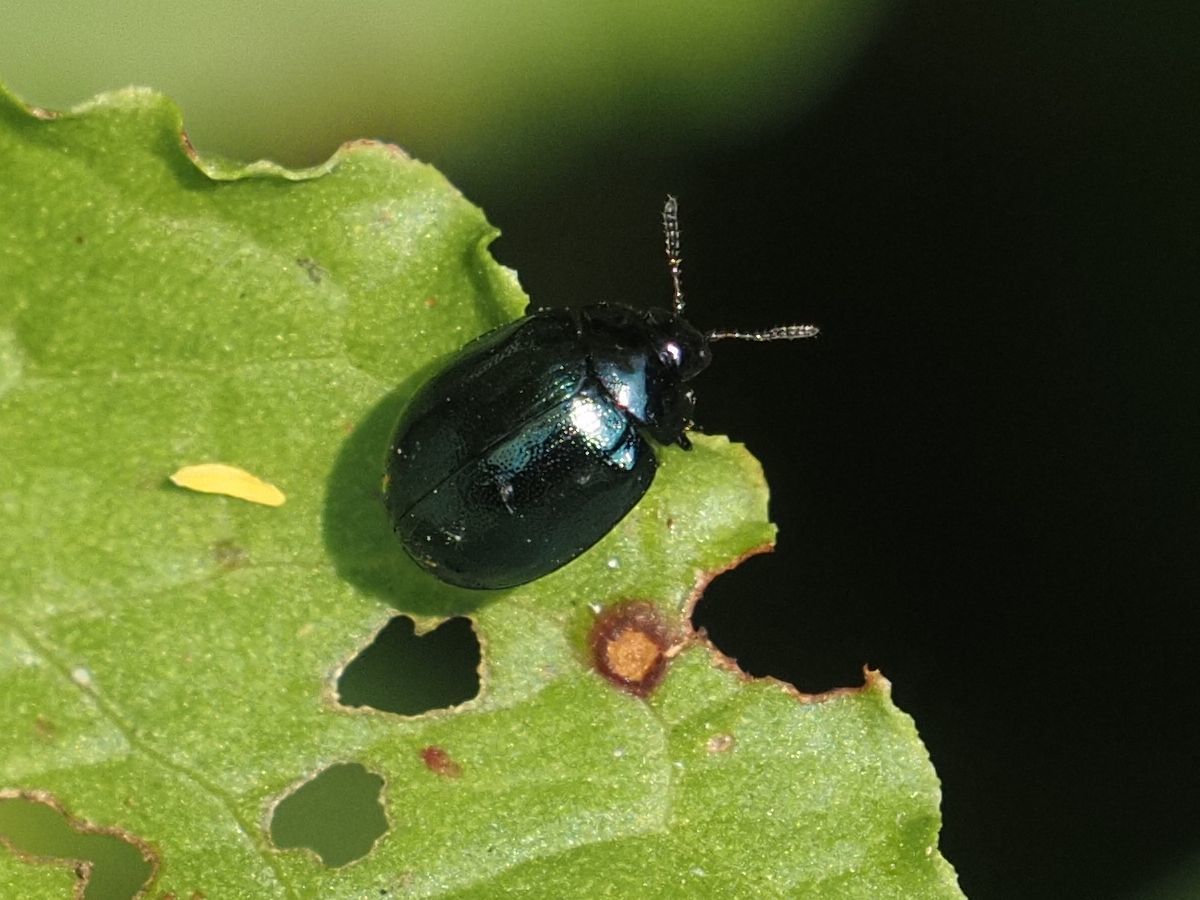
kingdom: Animalia
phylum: Arthropoda
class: Insecta
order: Coleoptera
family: Chrysomelidae
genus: Plagiodera
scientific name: Plagiodera versicolora
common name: Imported willow leaf beetle
